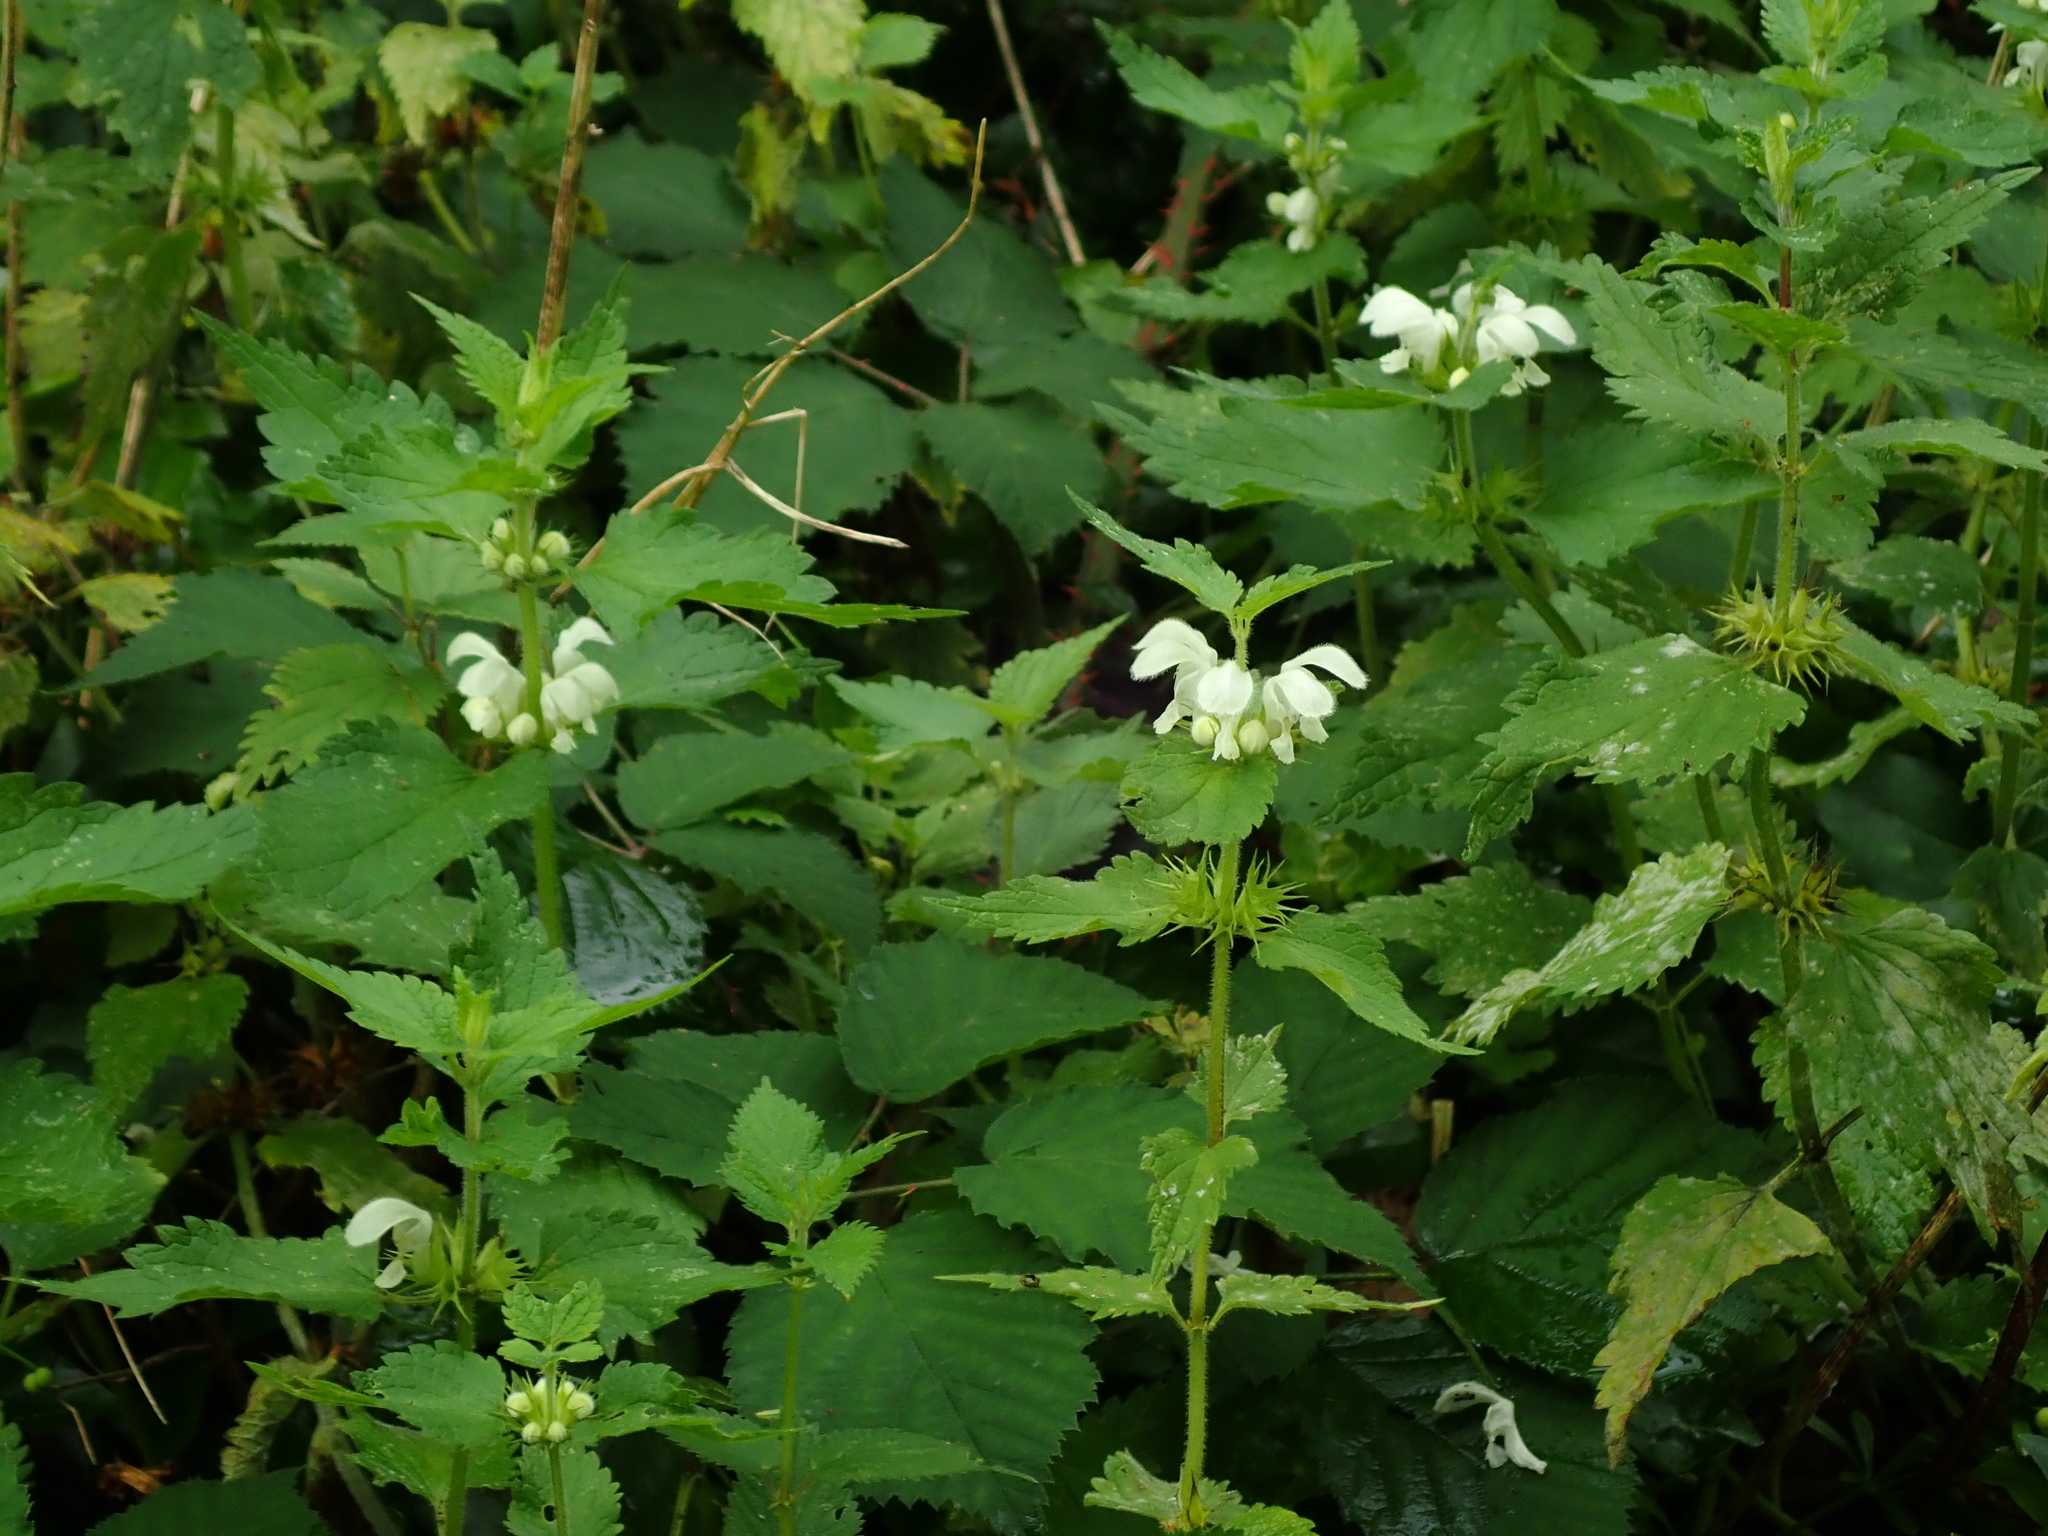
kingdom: Plantae
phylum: Tracheophyta
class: Magnoliopsida
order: Lamiales
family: Lamiaceae
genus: Lamium
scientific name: Lamium album
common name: White dead-nettle
